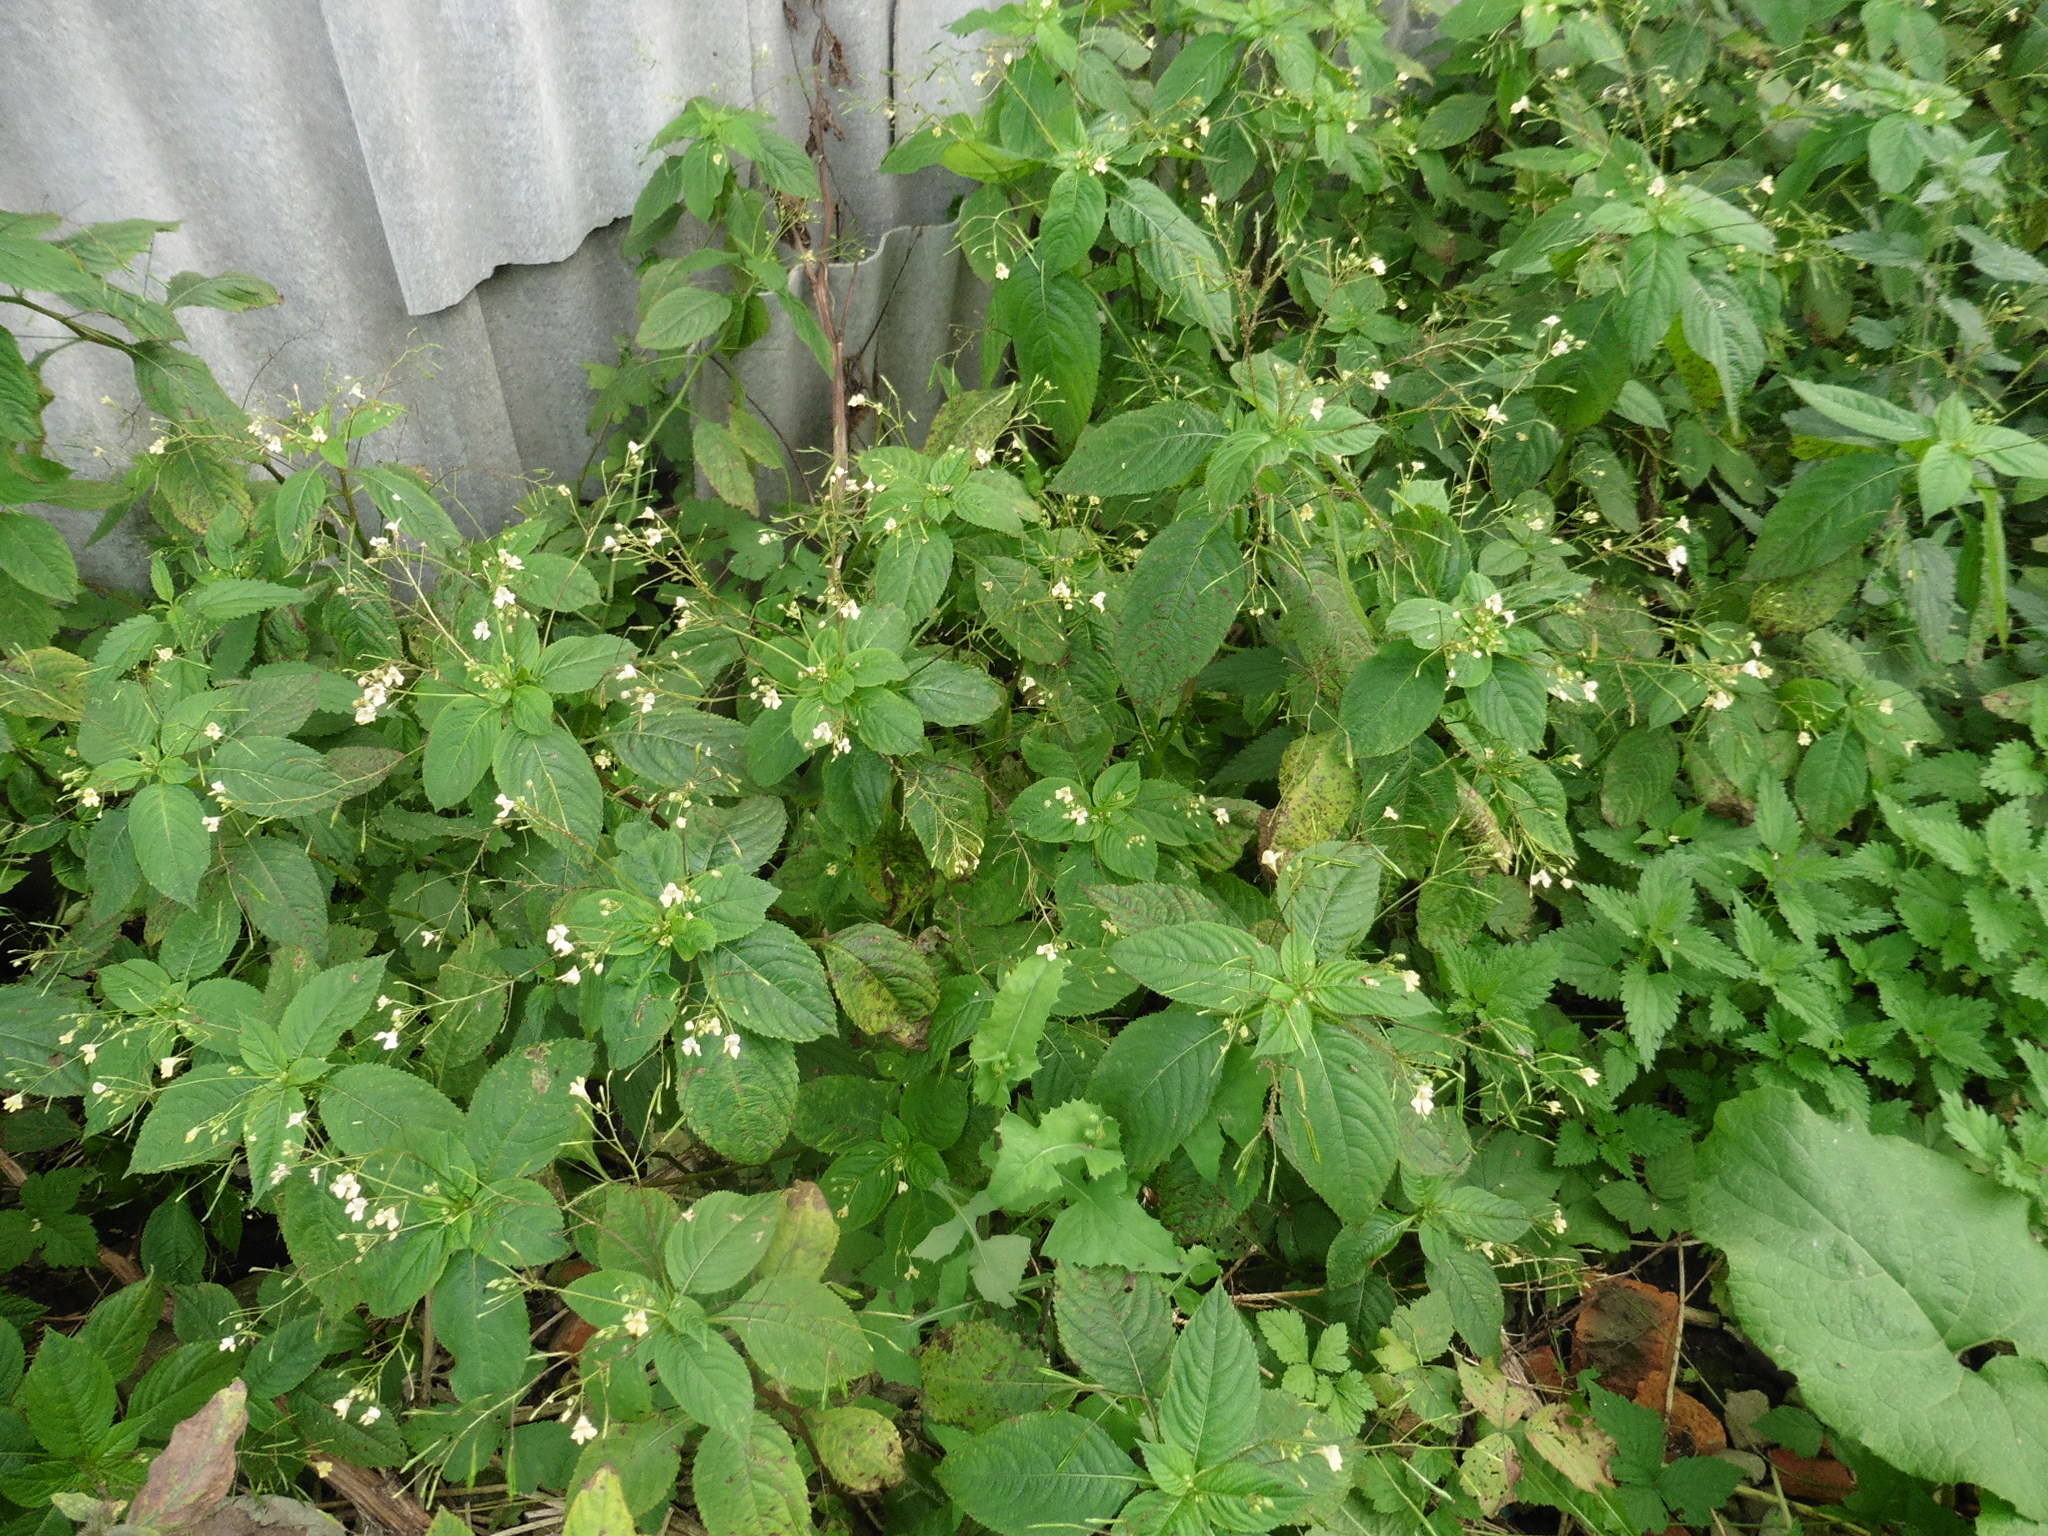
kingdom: Plantae
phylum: Tracheophyta
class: Magnoliopsida
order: Ericales
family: Balsaminaceae
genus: Impatiens
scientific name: Impatiens parviflora
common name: Small balsam
